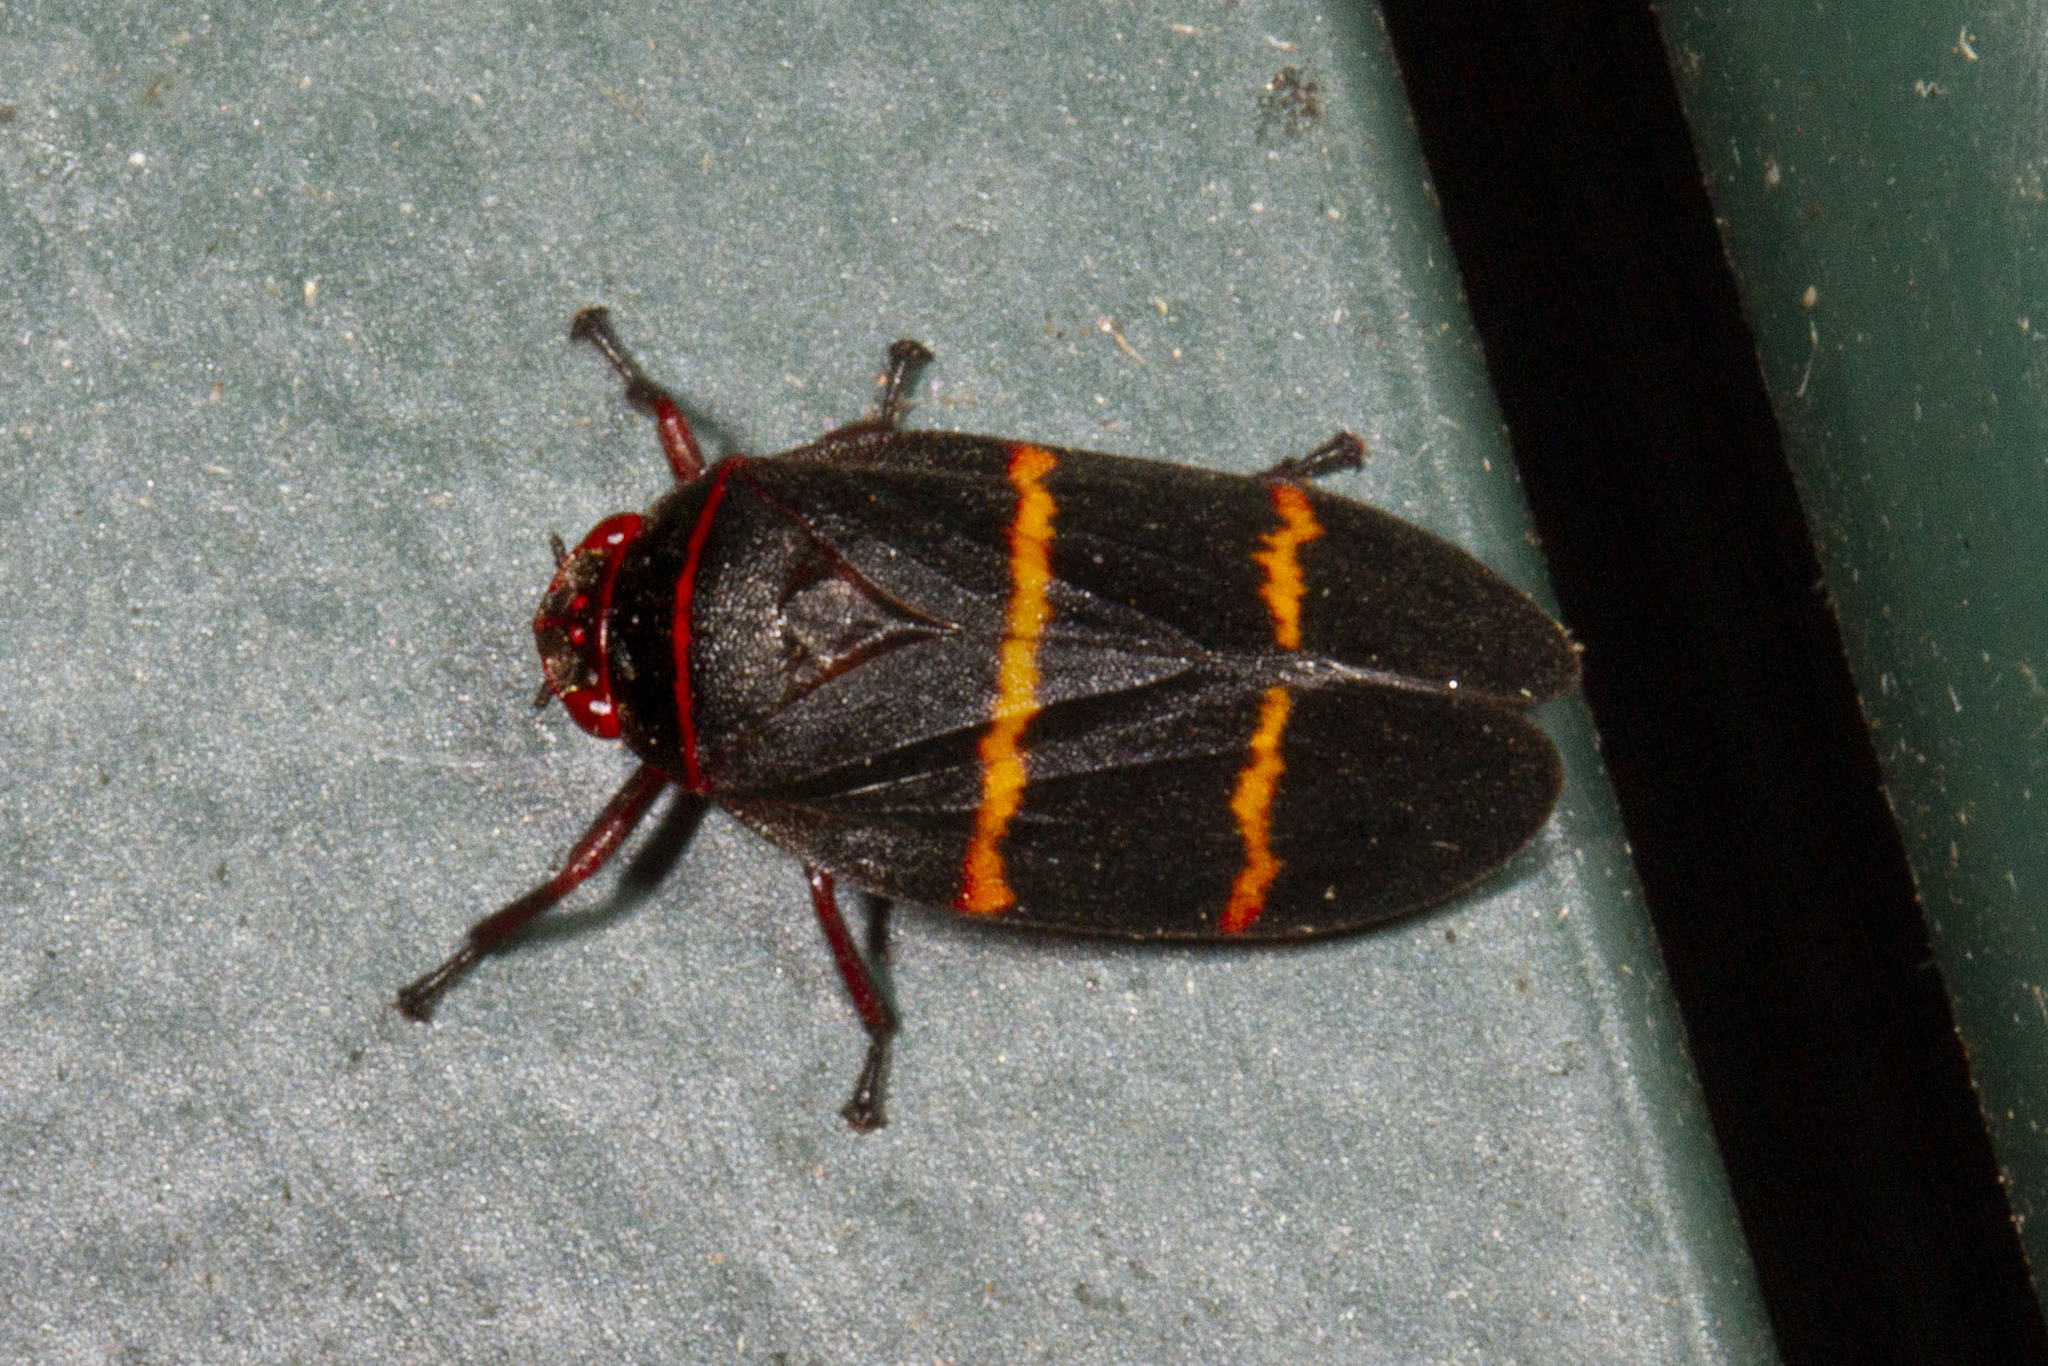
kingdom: Animalia
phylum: Arthropoda
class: Insecta
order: Hemiptera
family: Cercopidae
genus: Prosapia
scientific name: Prosapia bicincta
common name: Twolined spittlebug
